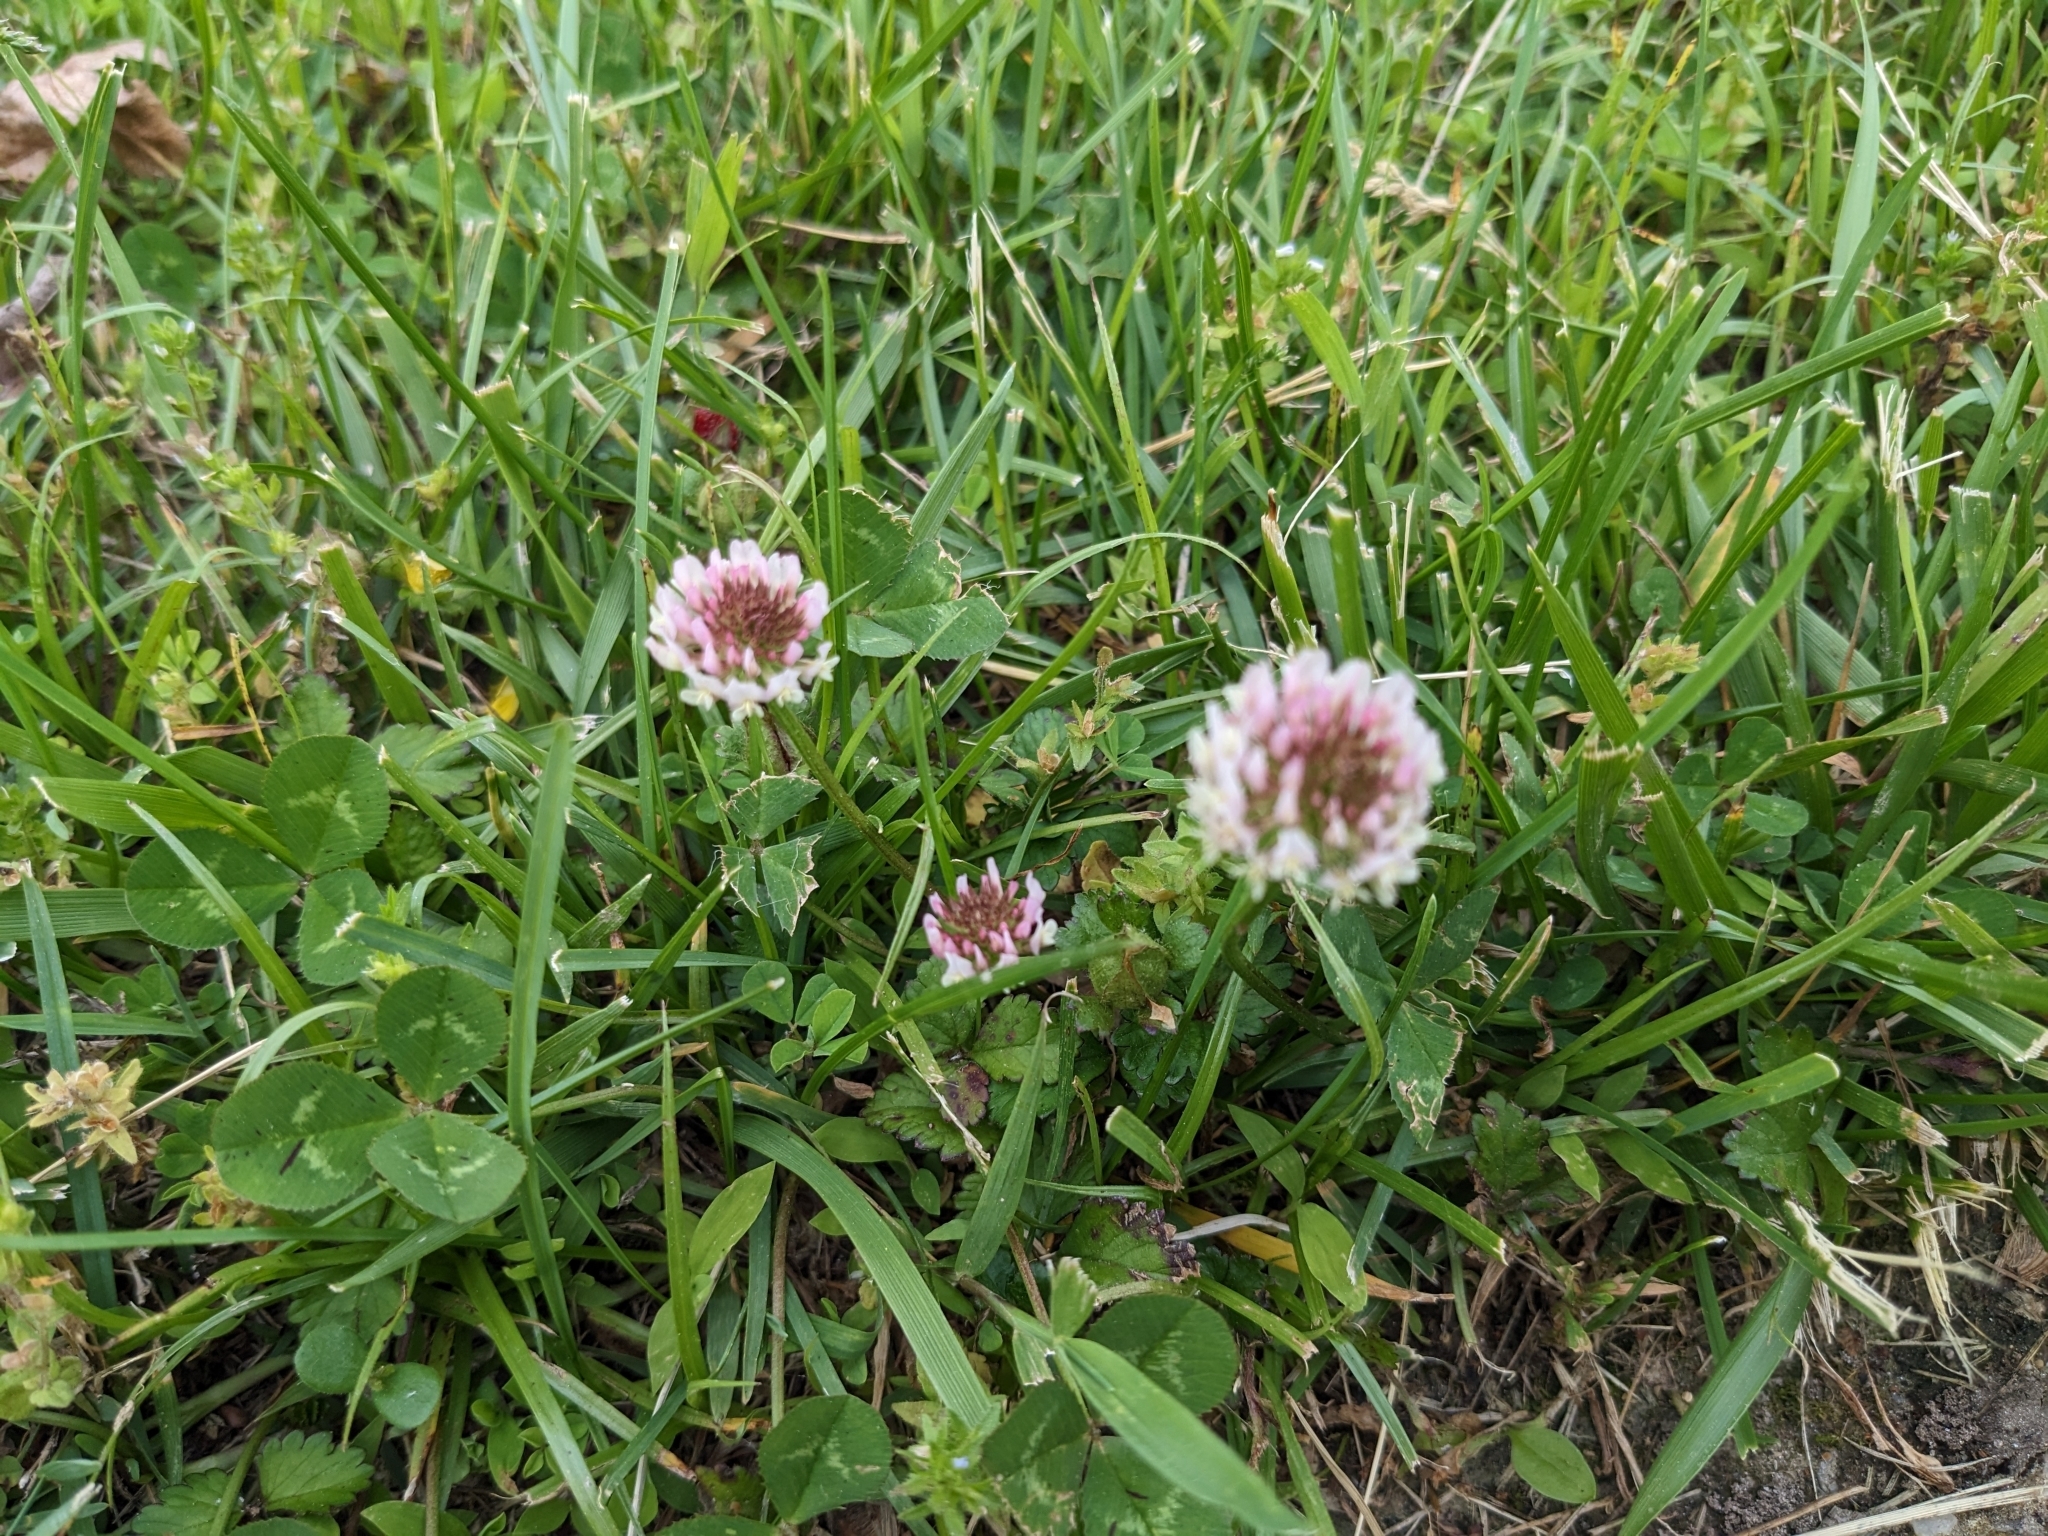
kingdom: Plantae
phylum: Tracheophyta
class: Magnoliopsida
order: Fabales
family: Fabaceae
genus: Trifolium
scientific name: Trifolium repens
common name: White clover
